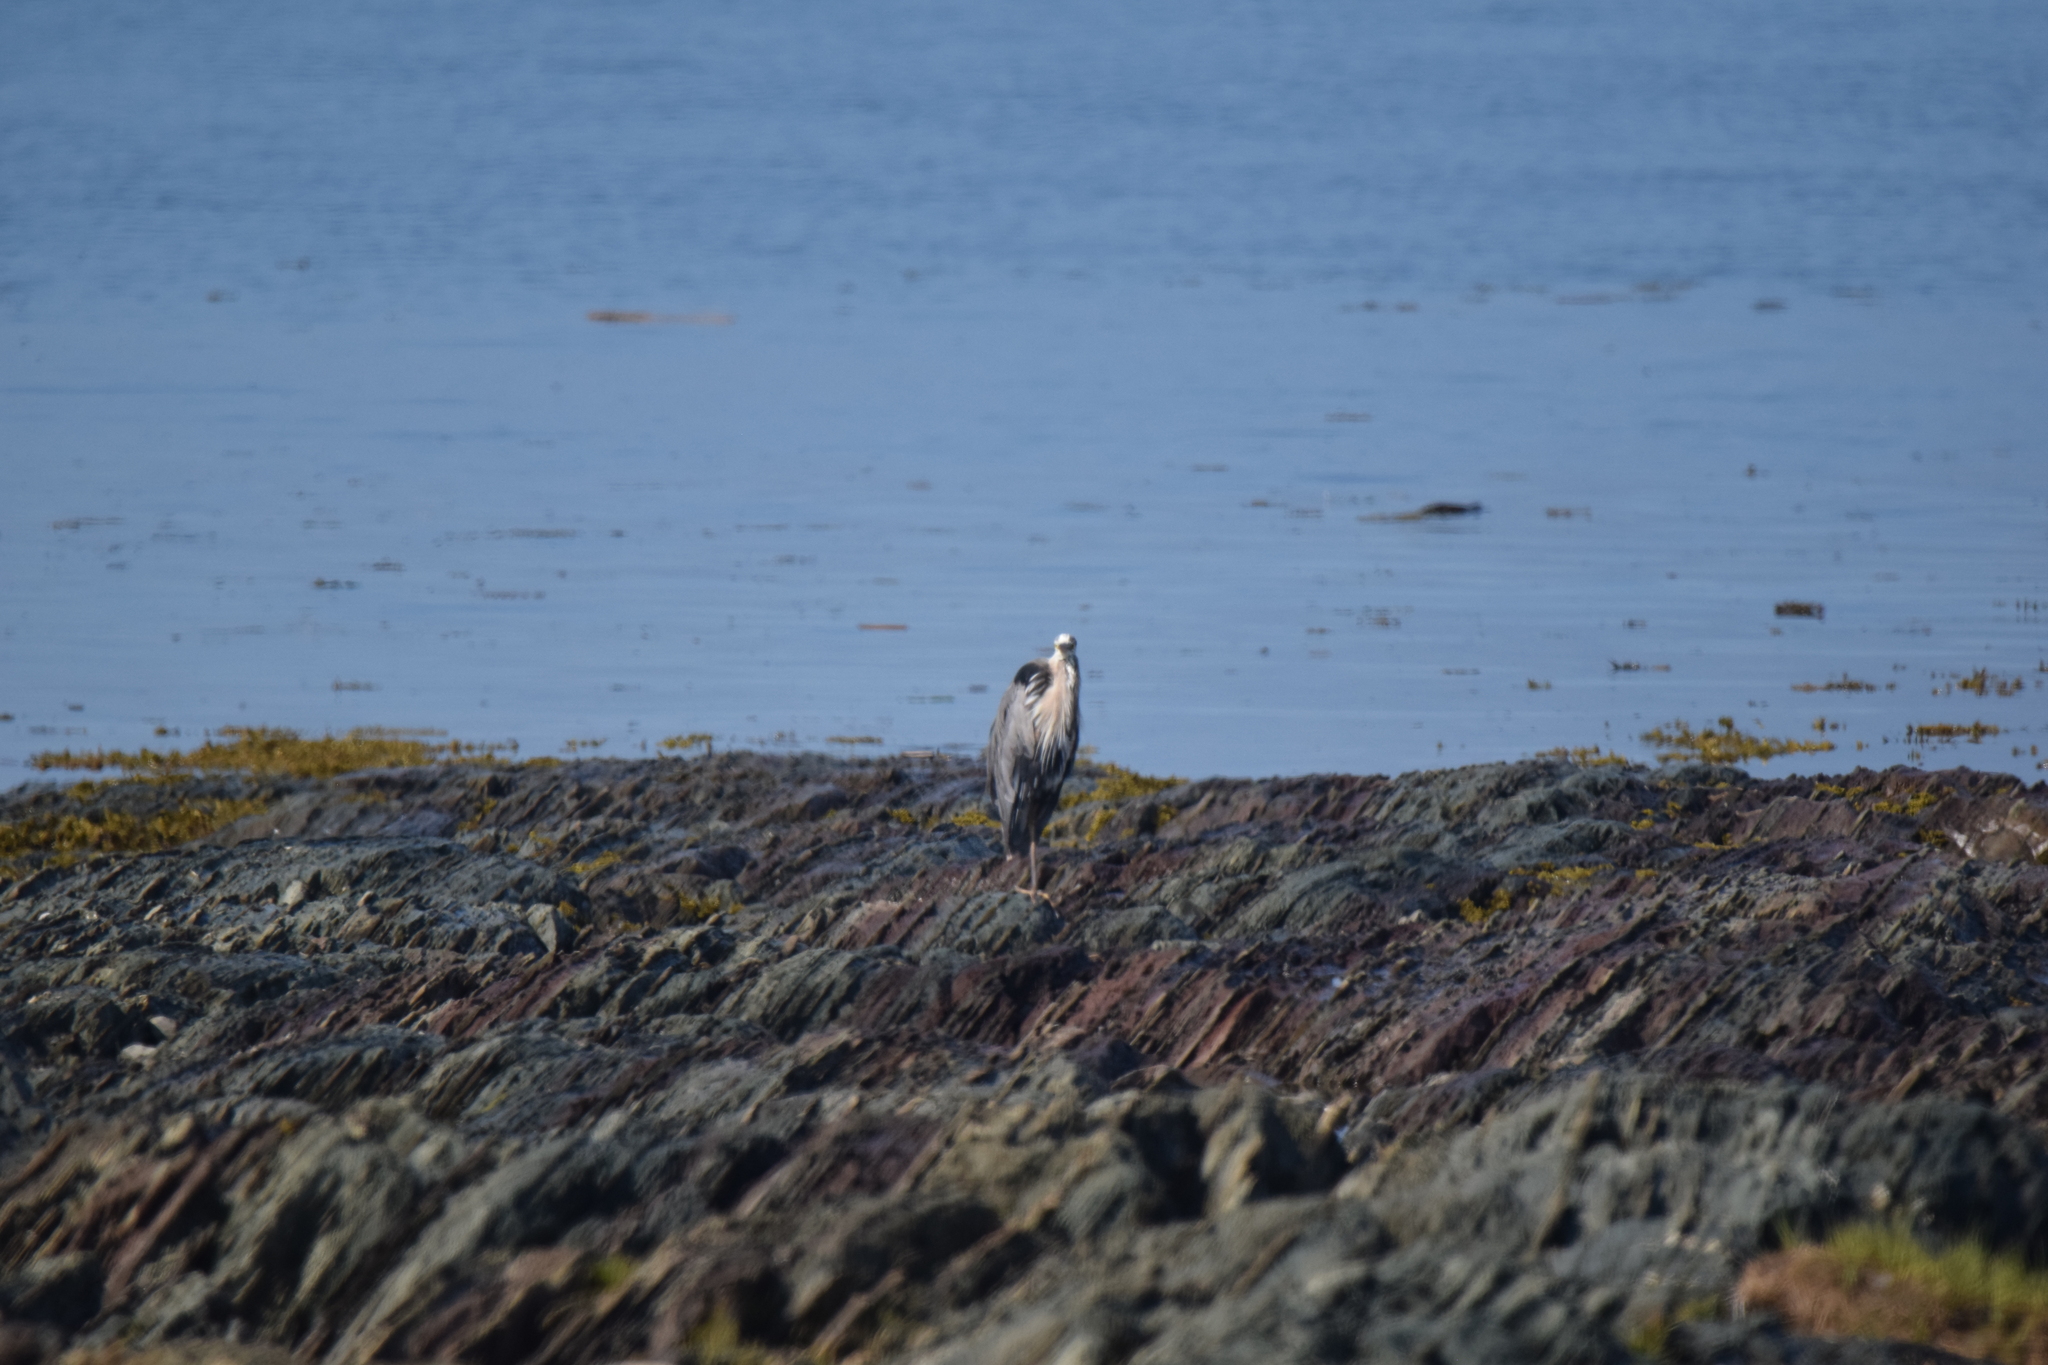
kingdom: Animalia
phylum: Chordata
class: Aves
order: Pelecaniformes
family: Ardeidae
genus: Ardea
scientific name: Ardea herodias
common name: Great blue heron
